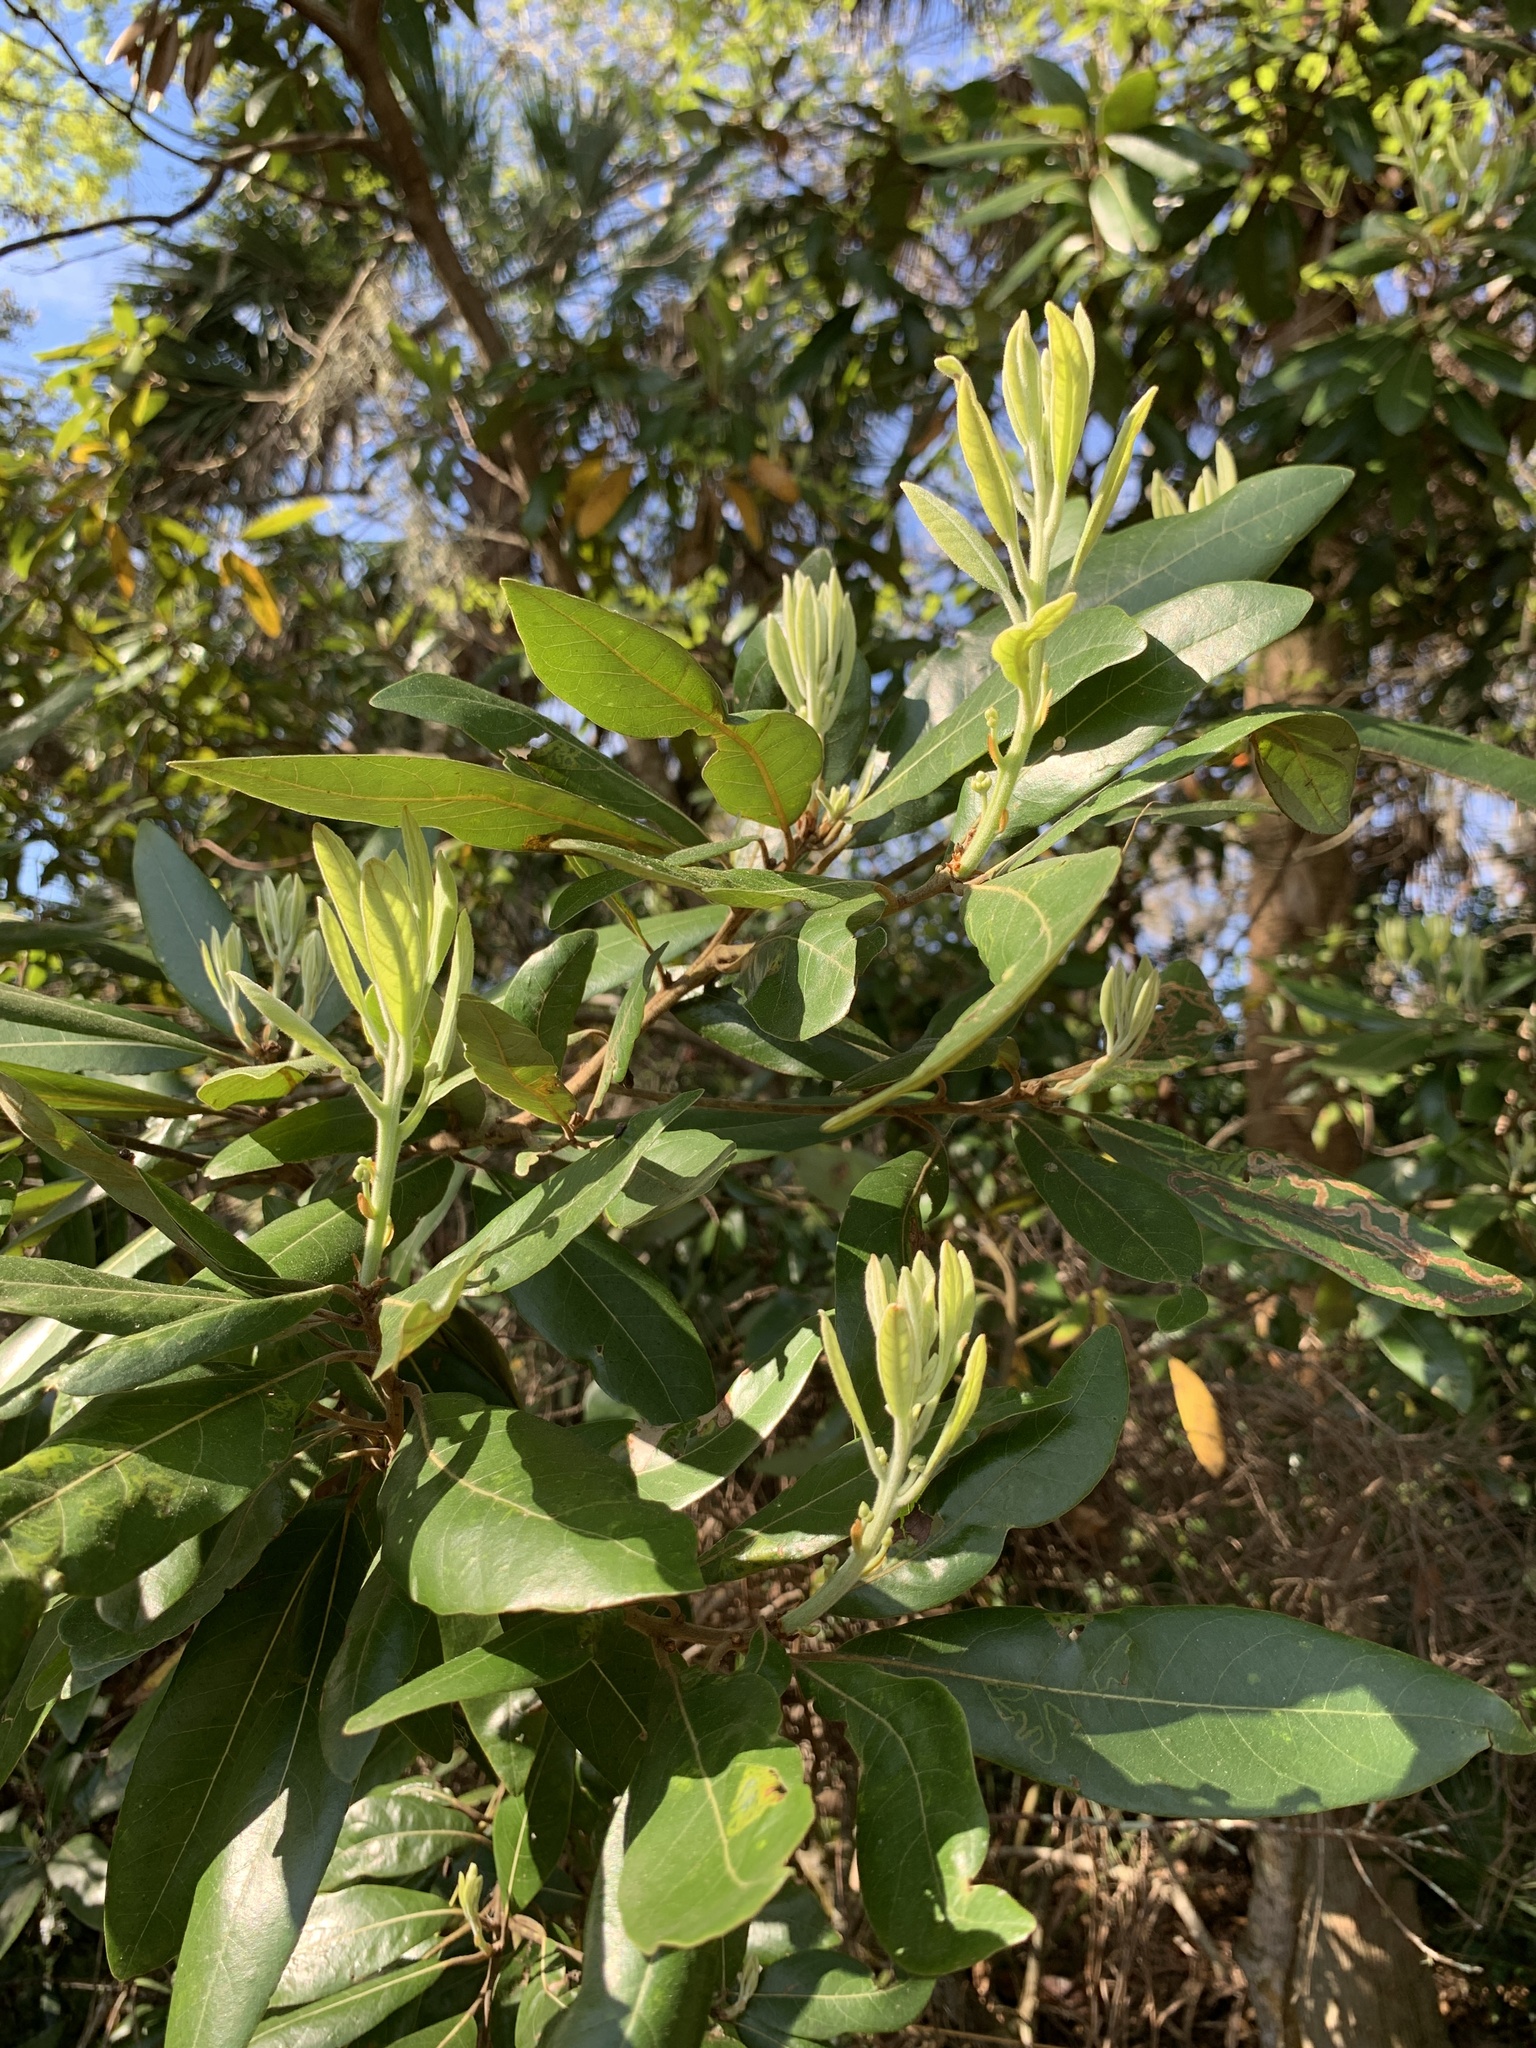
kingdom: Plantae
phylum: Tracheophyta
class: Magnoliopsida
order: Laurales
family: Lauraceae
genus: Persea
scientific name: Persea palustris
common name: Swampbay
